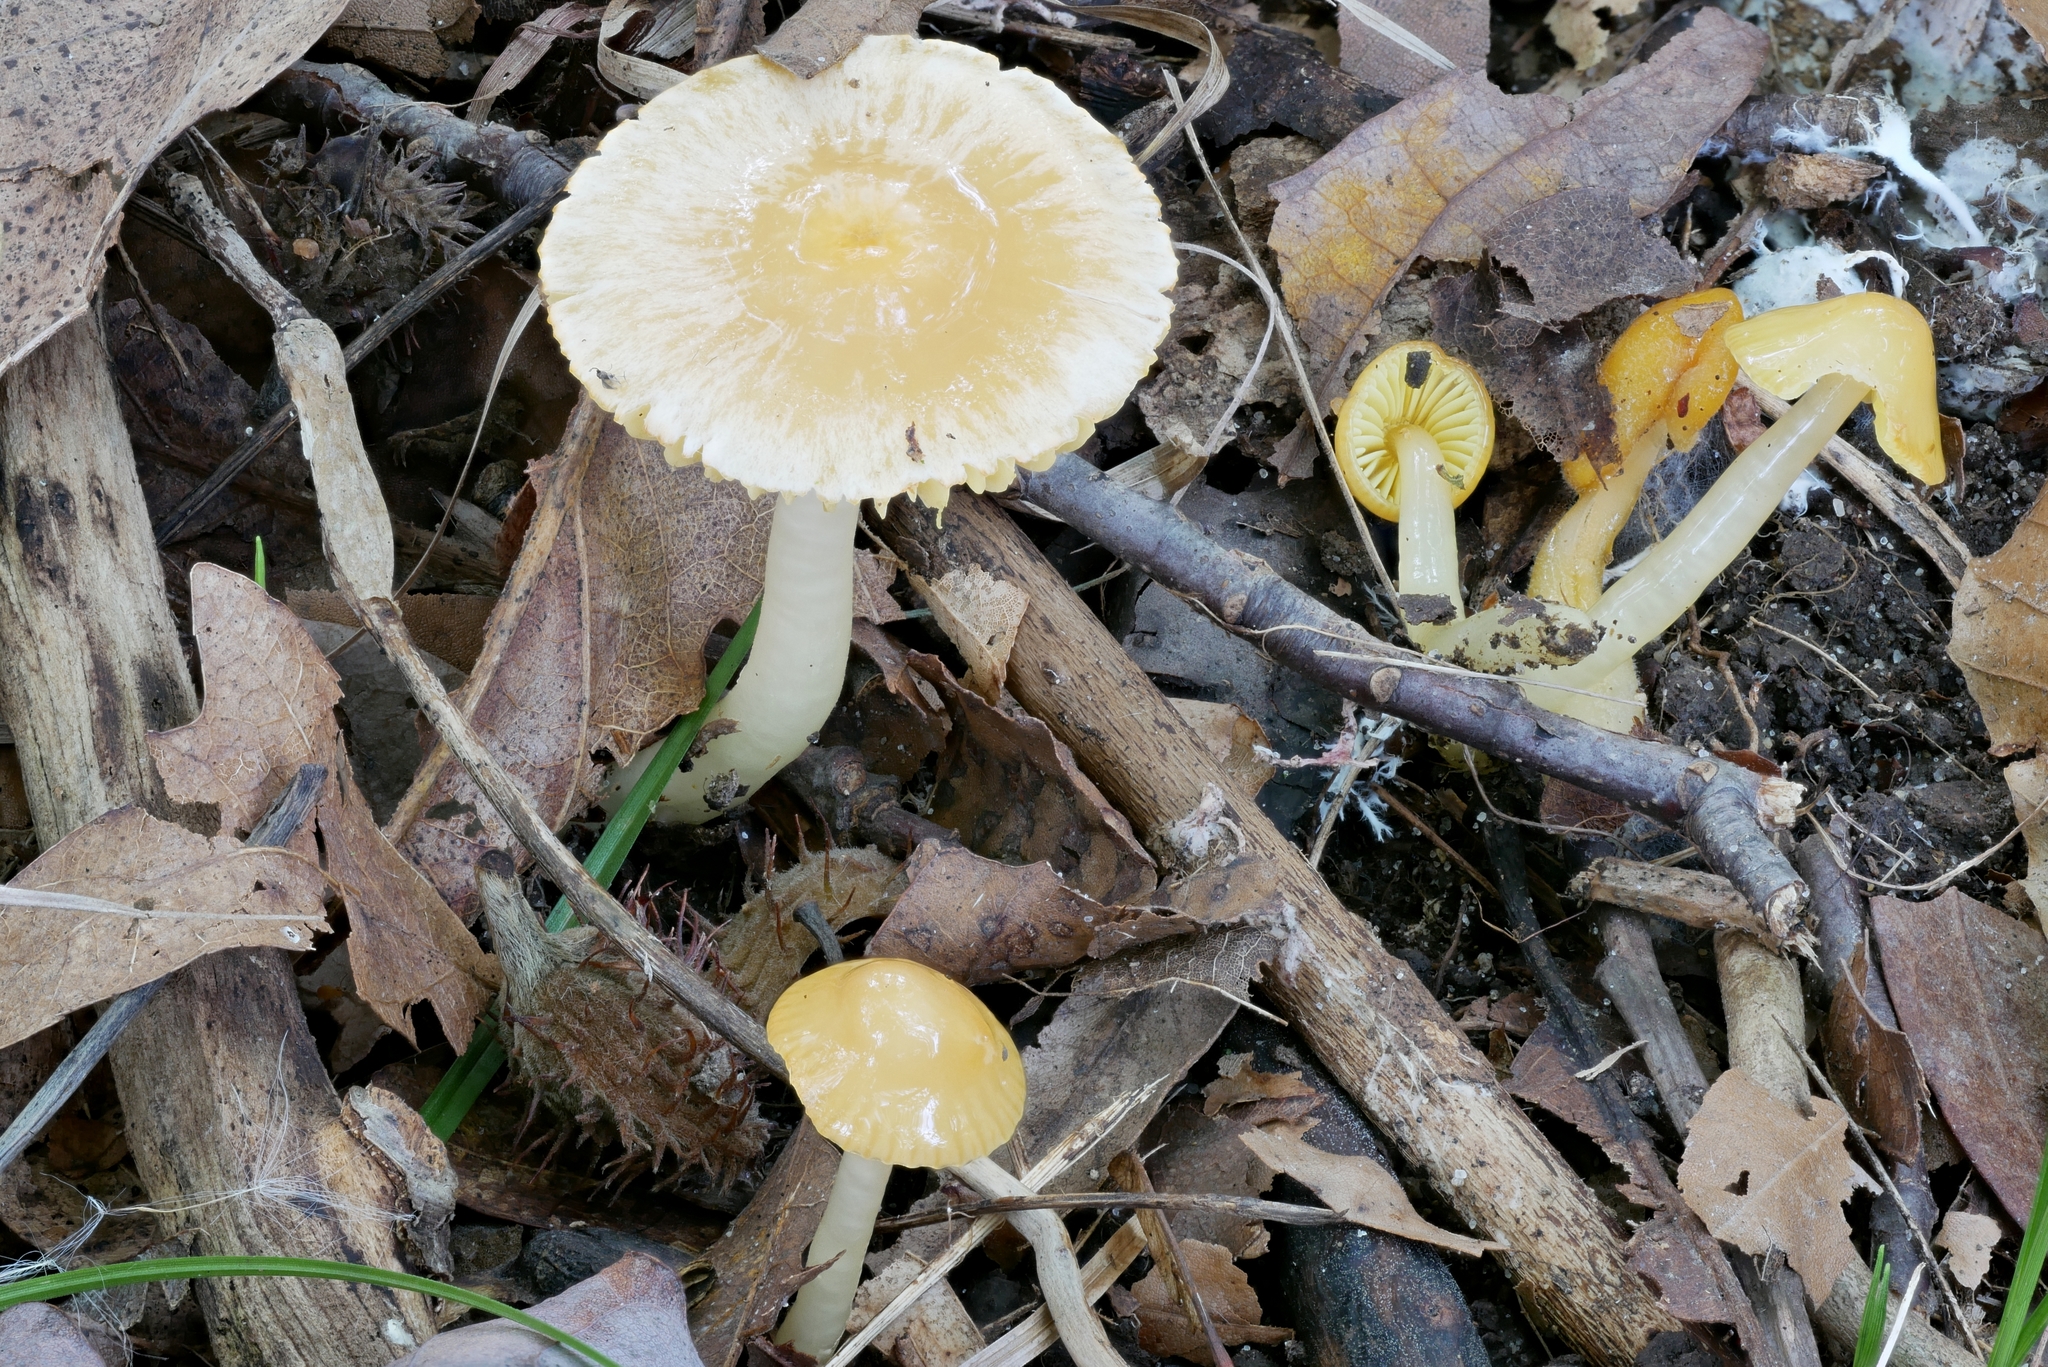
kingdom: Fungi
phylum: Basidiomycota
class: Agaricomycetes
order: Agaricales
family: Hygrophoraceae
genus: Gliophorus
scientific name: Gliophorus psittacinus
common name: Parrot wax-cap
